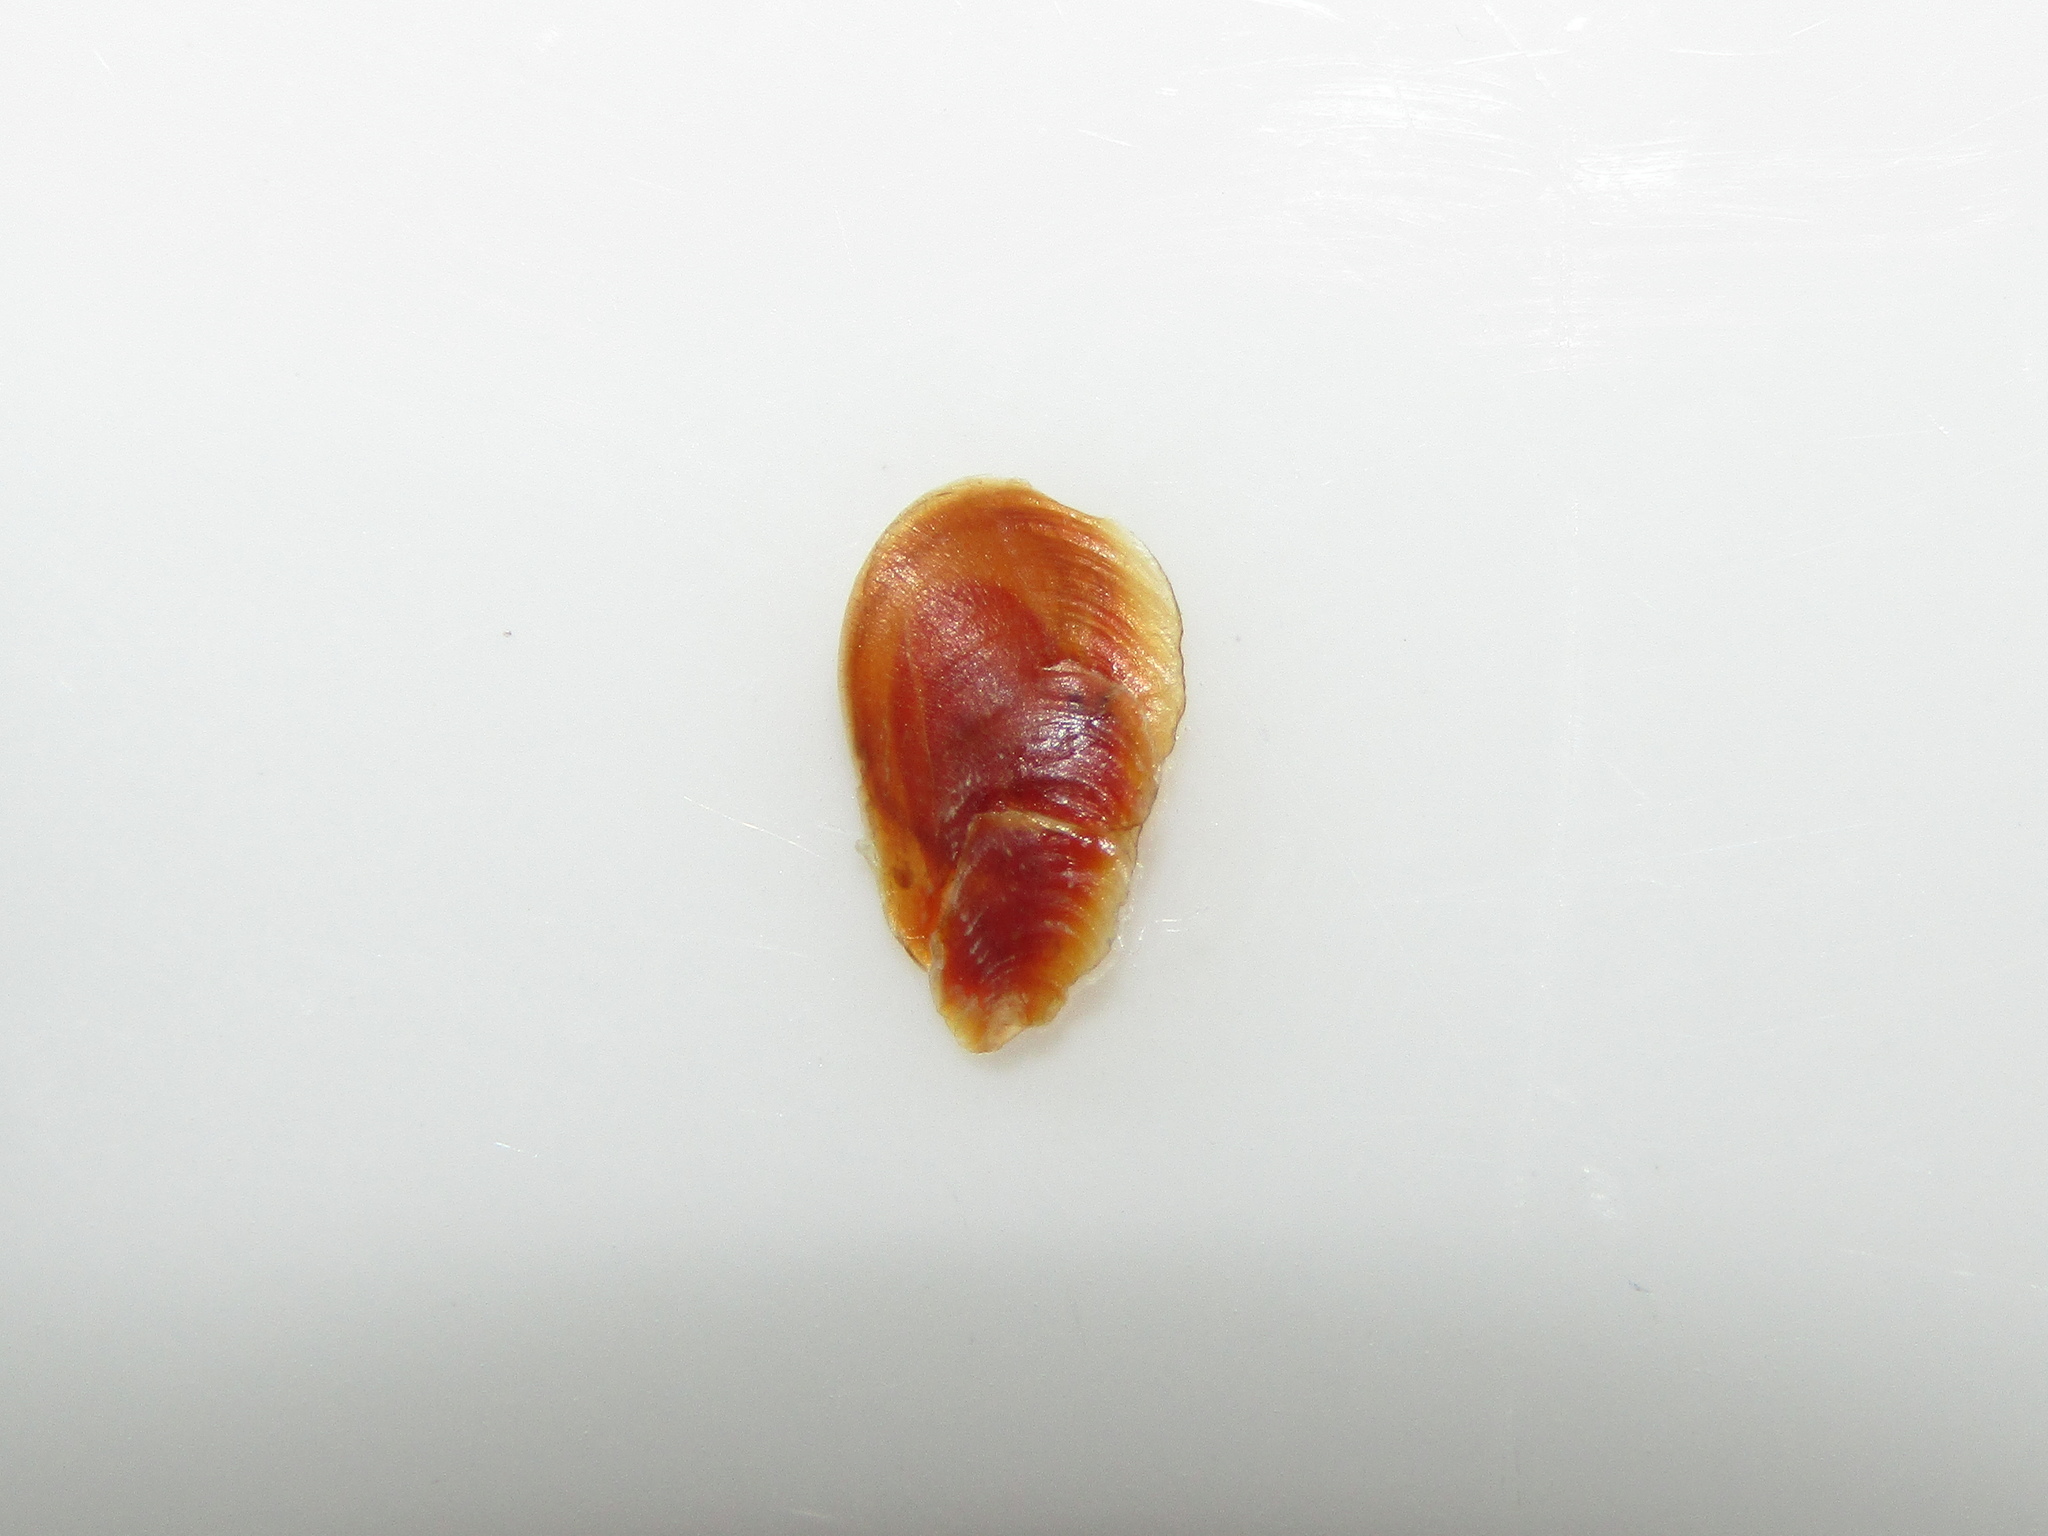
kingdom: Animalia
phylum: Mollusca
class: Gastropoda
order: Neogastropoda
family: Muricidae
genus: Zeatrophon
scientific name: Zeatrophon ambiguus
